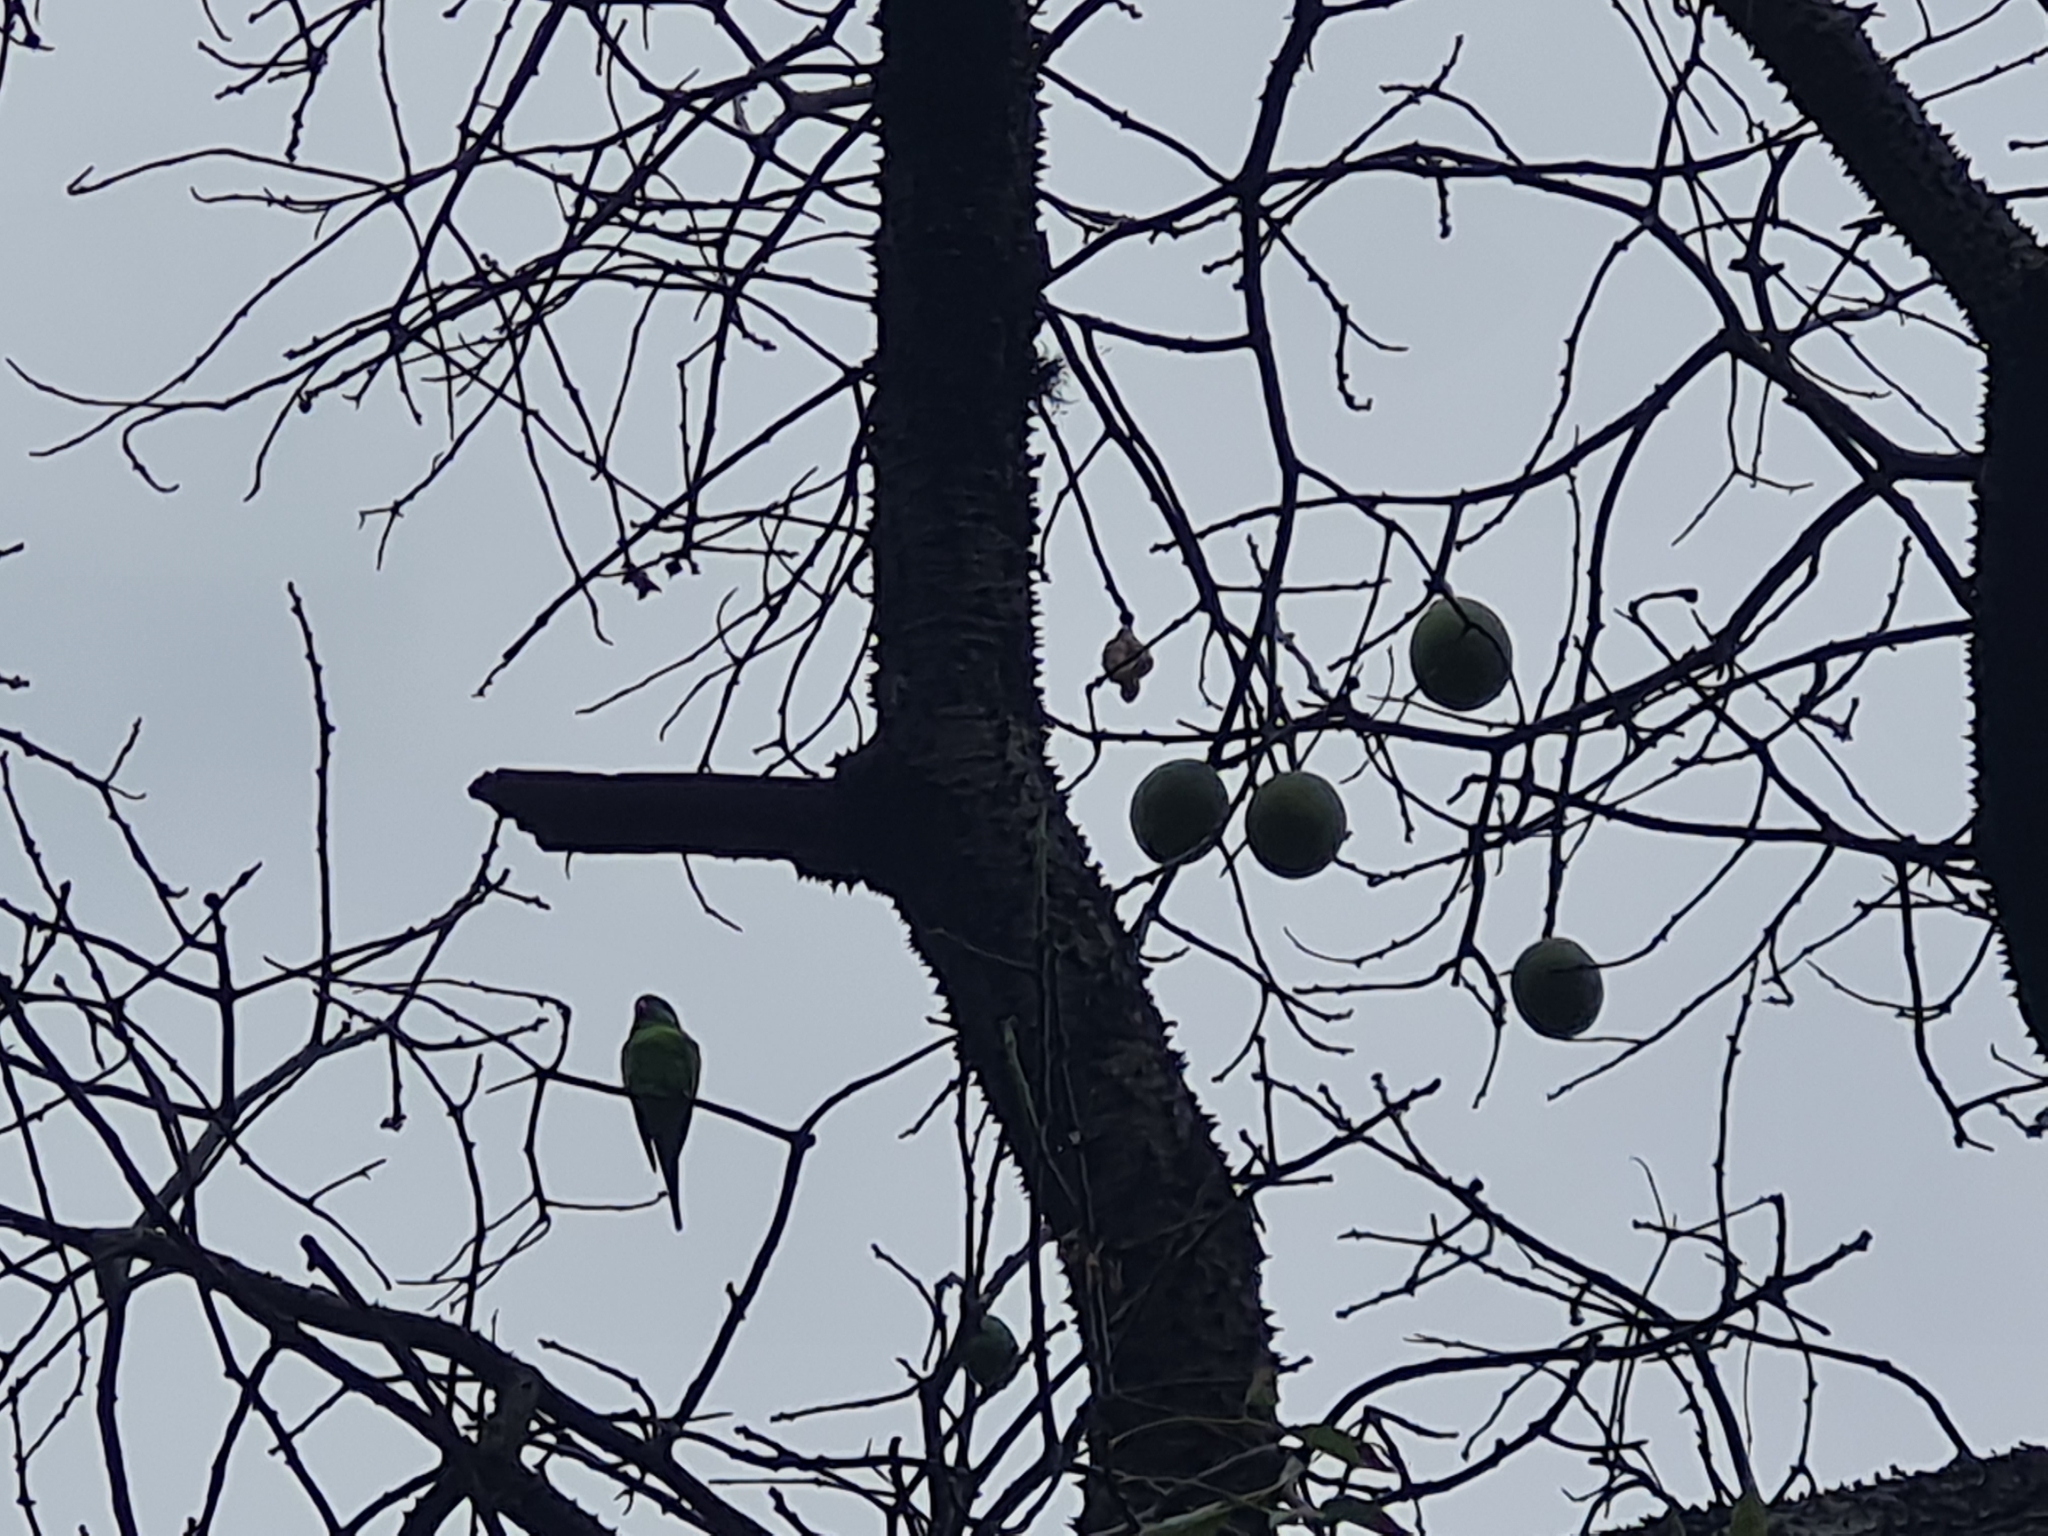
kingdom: Animalia
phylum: Chordata
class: Aves
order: Psittaciformes
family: Psittacidae
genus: Brotogeris
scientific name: Brotogeris chiriri
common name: Yellow-chevroned parakeet
